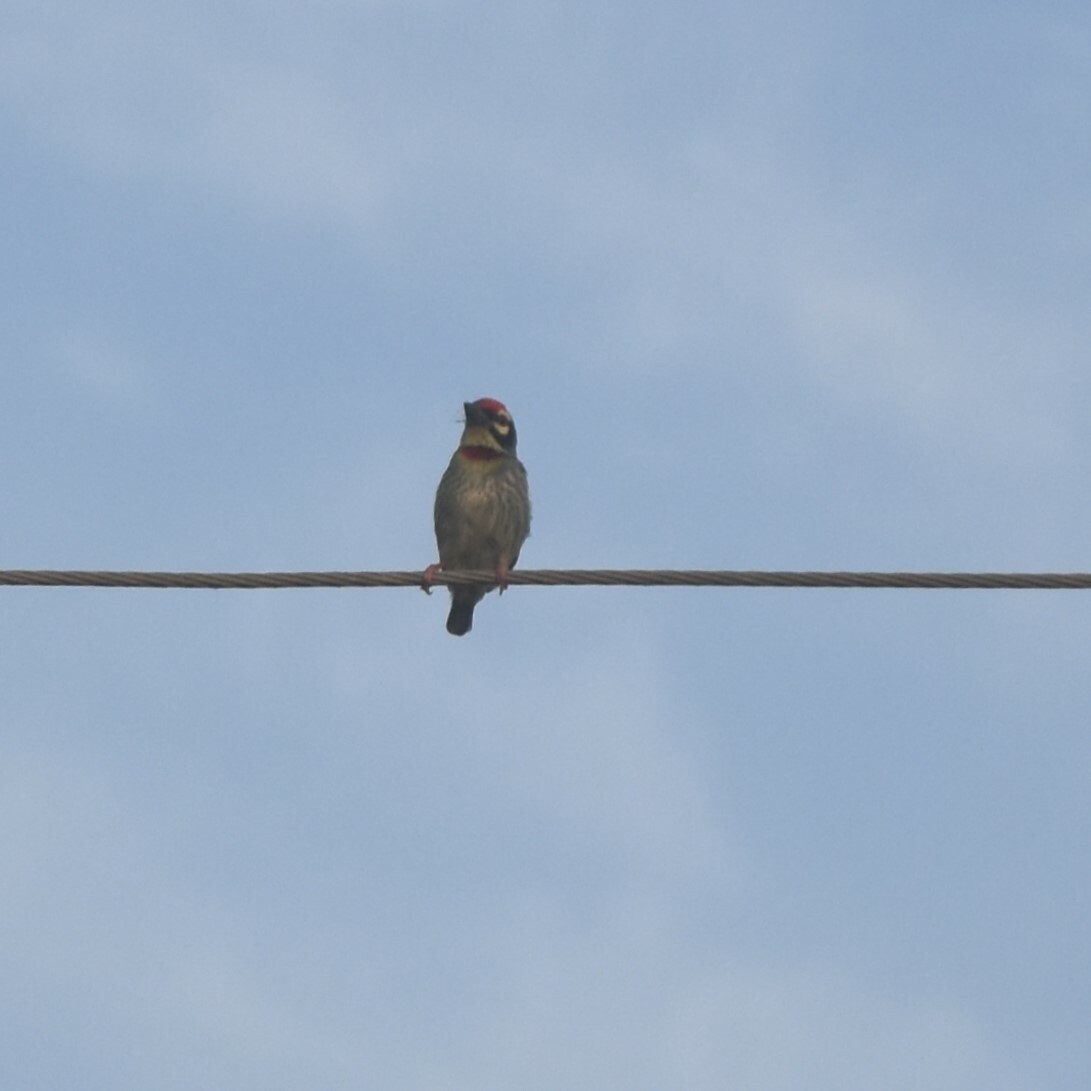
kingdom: Animalia
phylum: Chordata
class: Aves
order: Piciformes
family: Megalaimidae
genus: Psilopogon
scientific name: Psilopogon haemacephalus
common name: Coppersmith barbet
